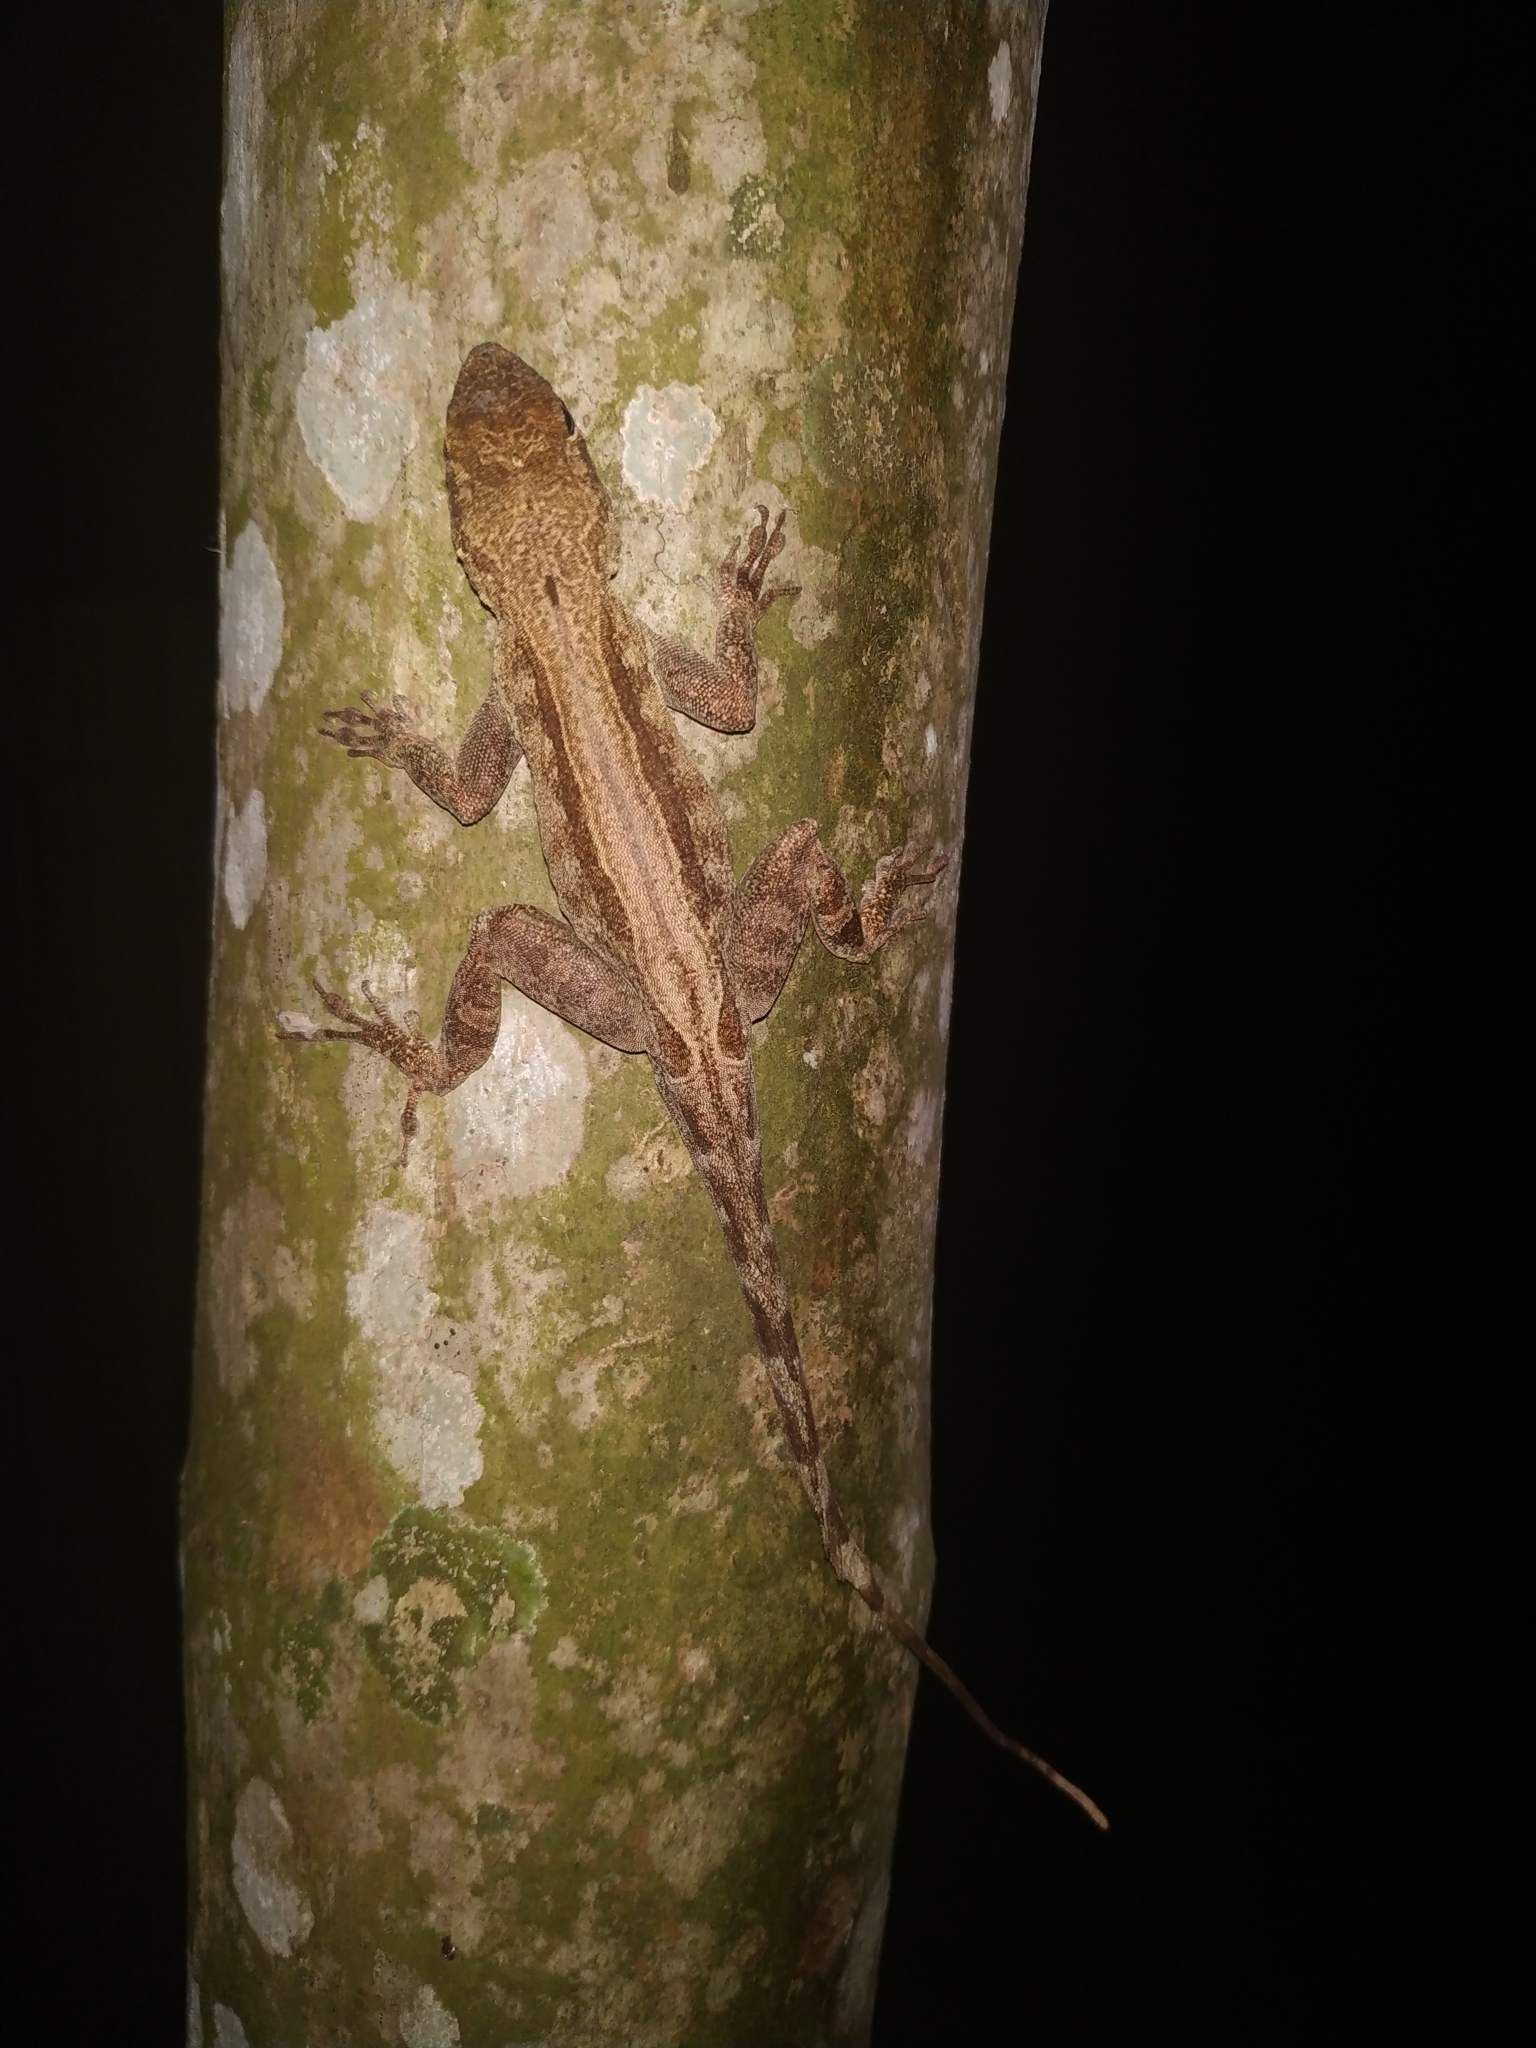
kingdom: Animalia
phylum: Chordata
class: Squamata
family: Dactyloidae
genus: Anolis
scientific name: Anolis cristatellus
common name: Crested anole
